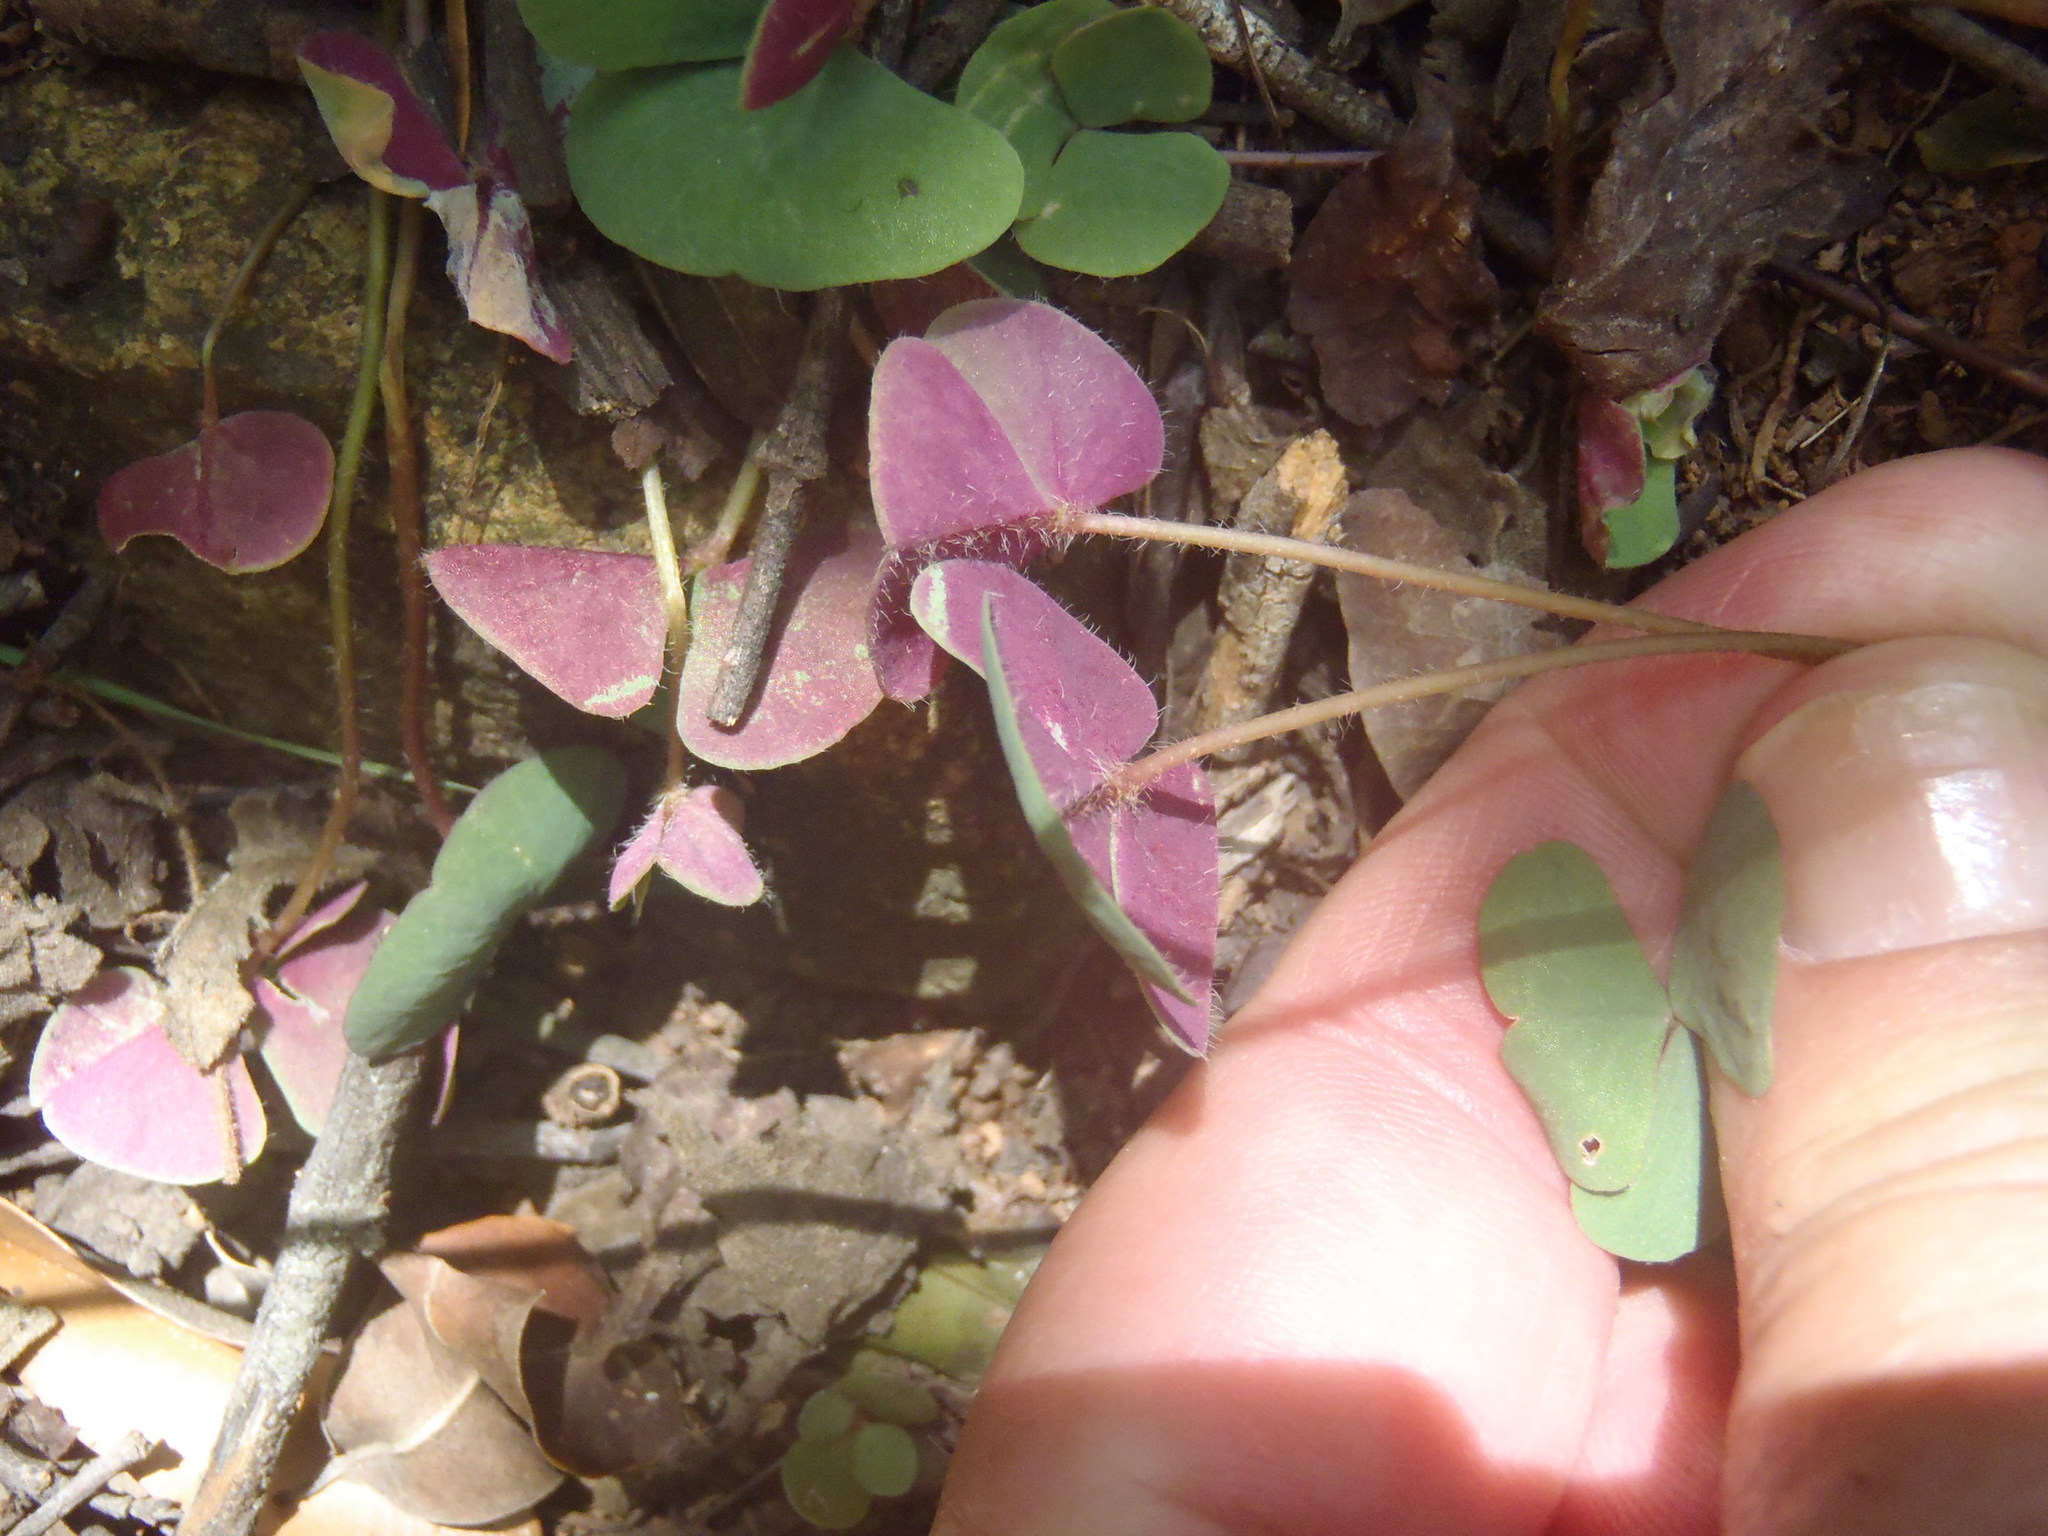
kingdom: Plantae
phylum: Tracheophyta
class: Magnoliopsida
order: Oxalidales
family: Oxalidaceae
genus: Oxalis
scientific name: Oxalis obliquifolia
